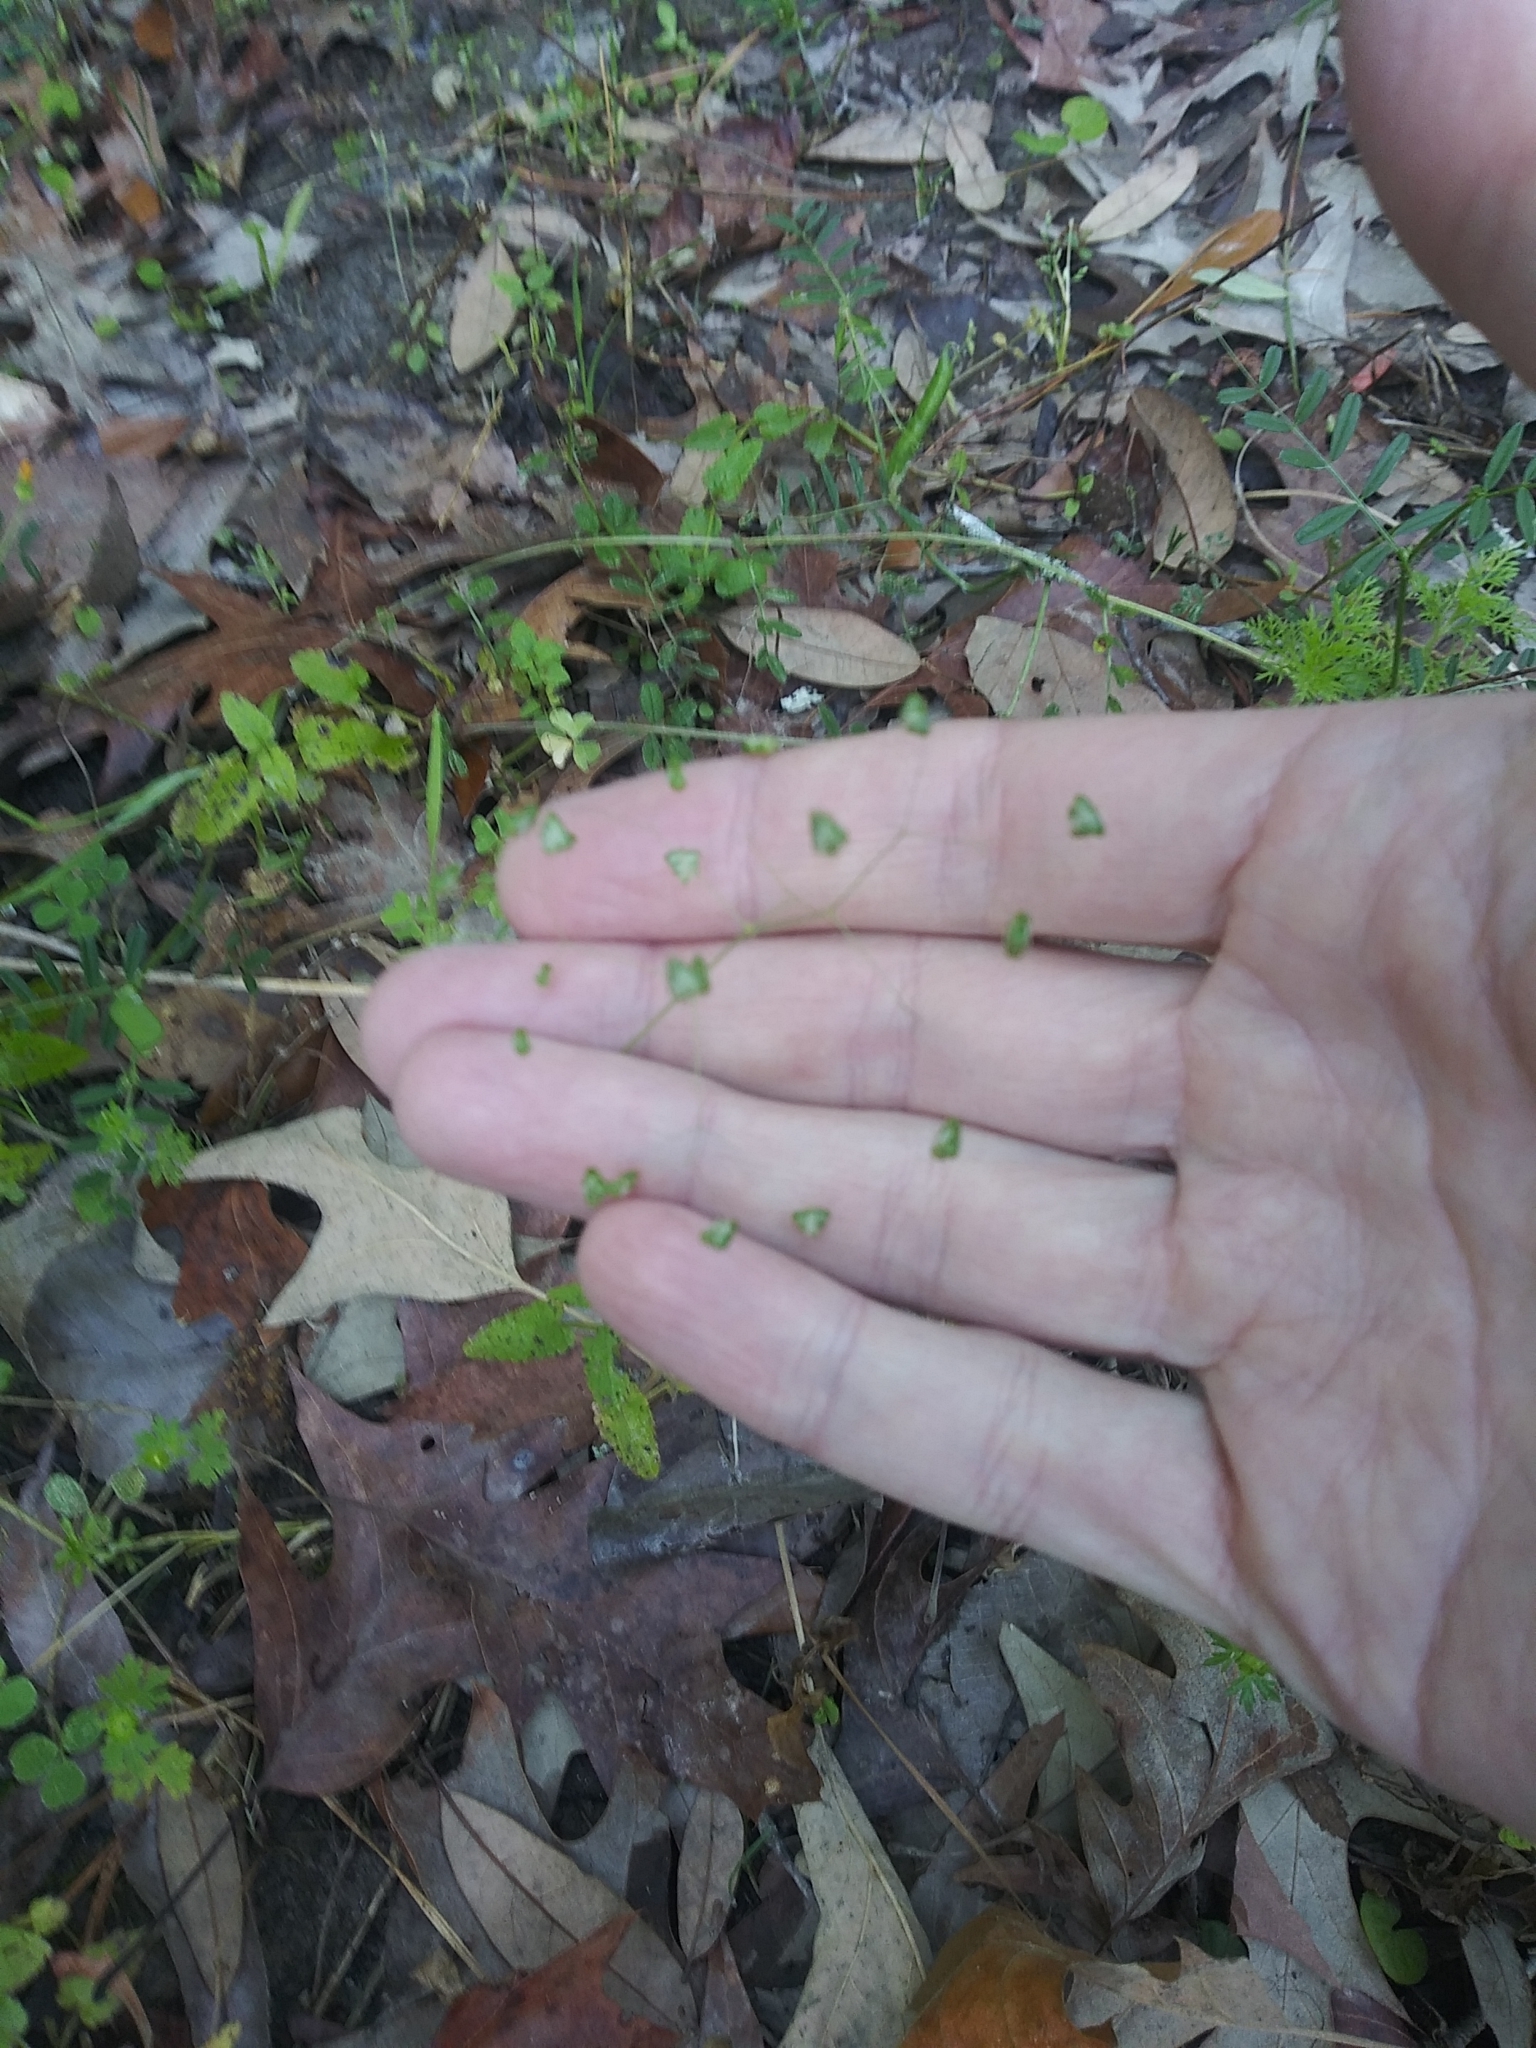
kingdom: Plantae
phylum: Tracheophyta
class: Liliopsida
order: Poales
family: Poaceae
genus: Briza
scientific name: Briza minor
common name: Lesser quaking-grass
